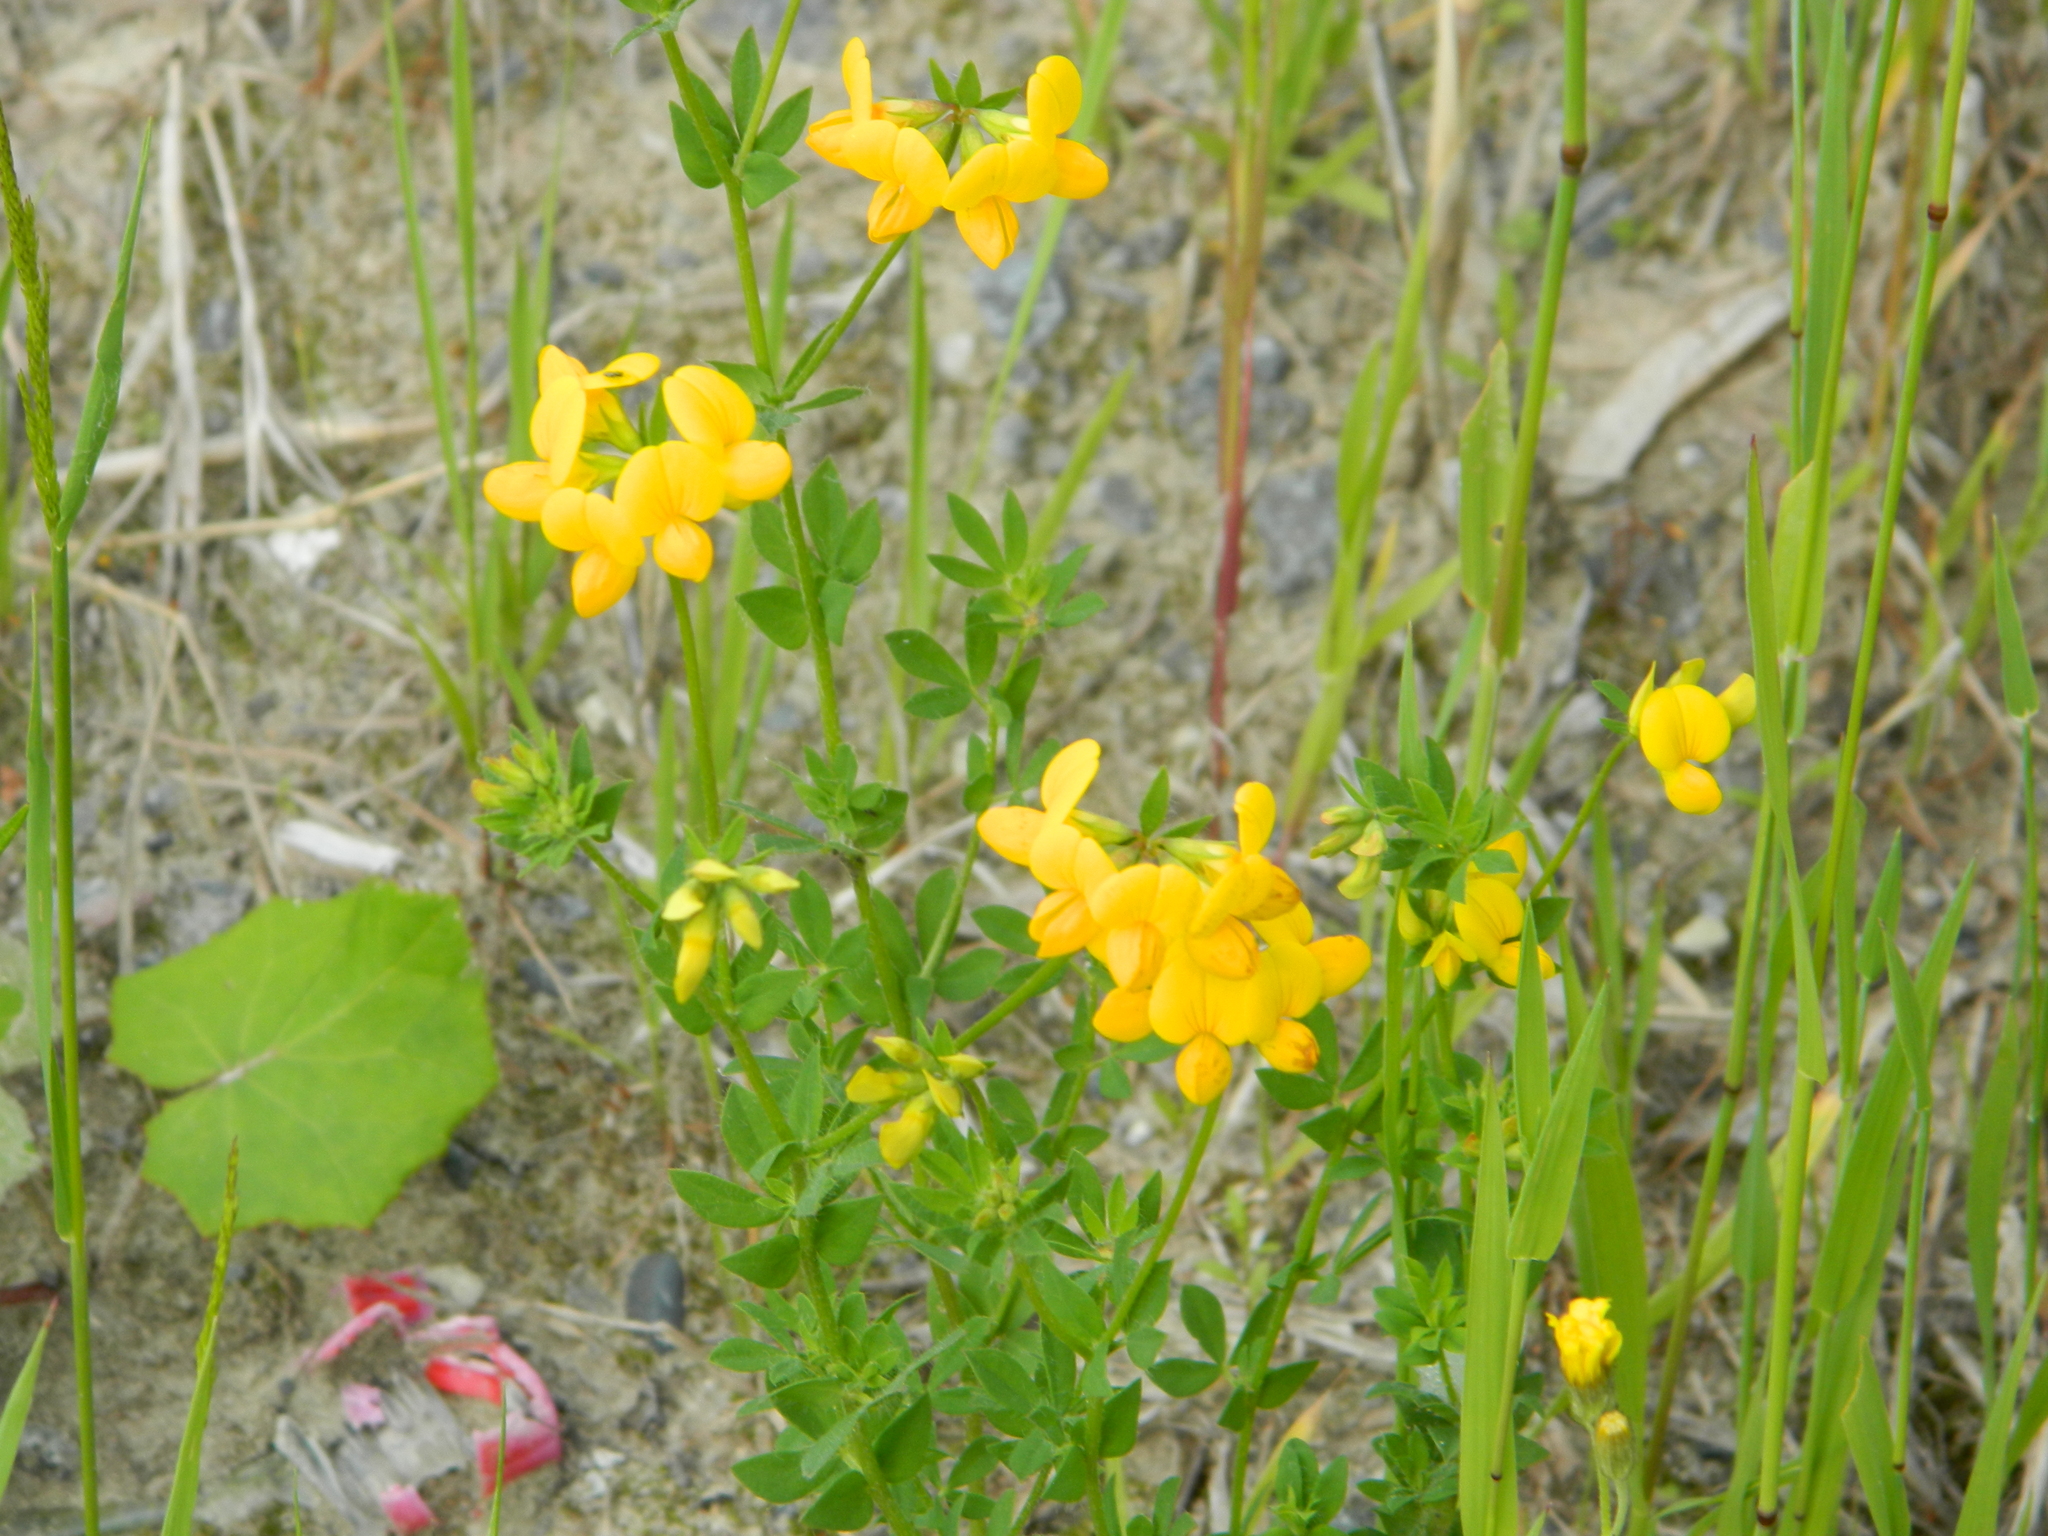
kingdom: Plantae
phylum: Tracheophyta
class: Magnoliopsida
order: Fabales
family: Fabaceae
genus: Lotus
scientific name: Lotus corniculatus
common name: Common bird's-foot-trefoil
